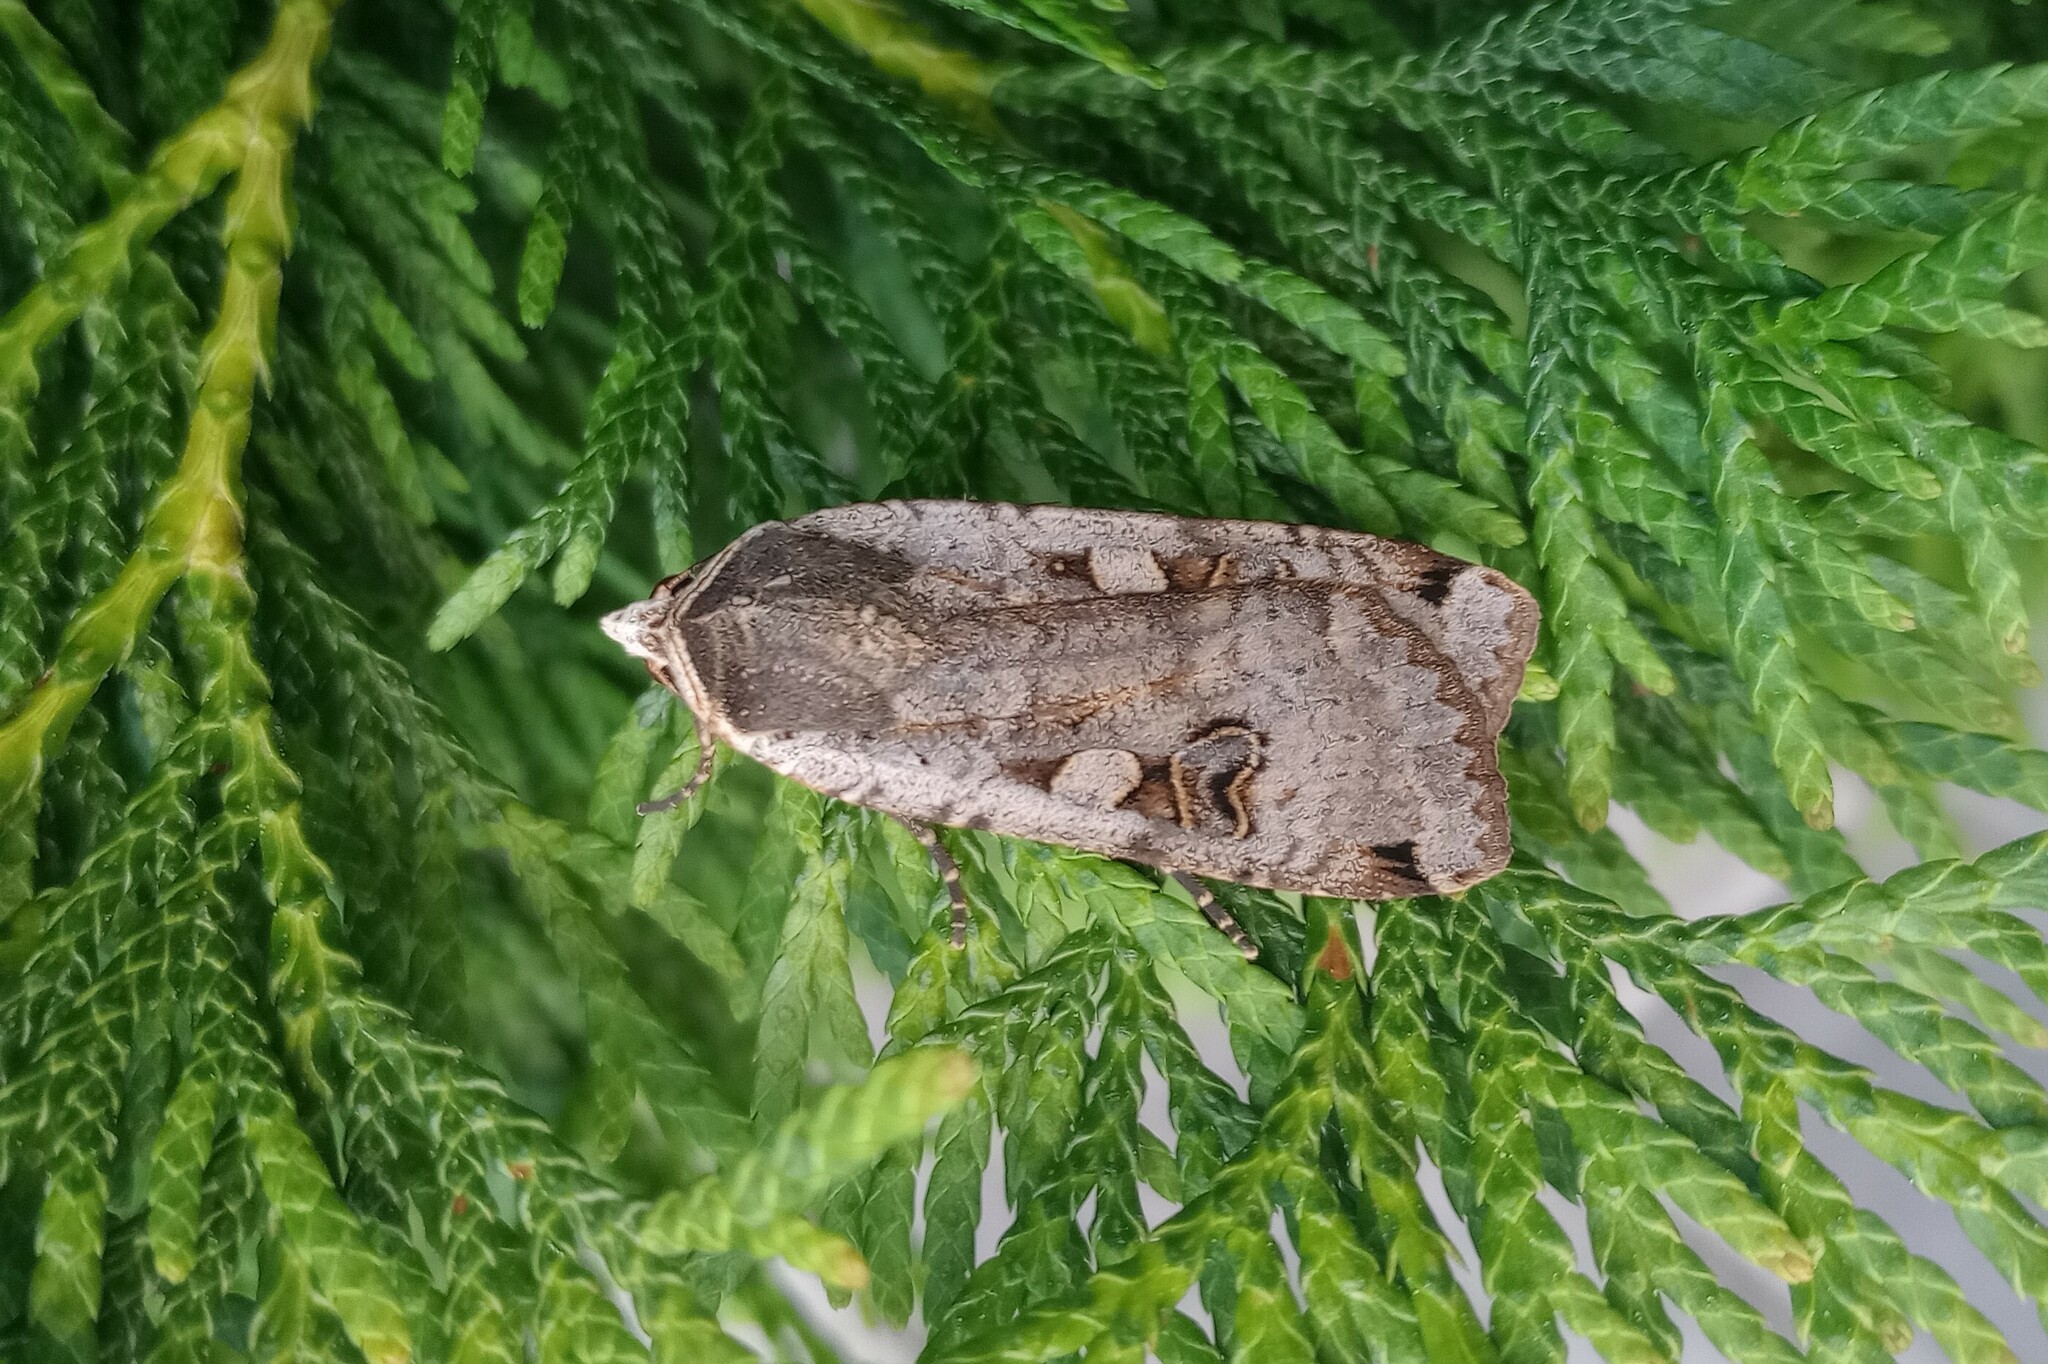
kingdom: Animalia
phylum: Arthropoda
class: Insecta
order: Lepidoptera
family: Noctuidae
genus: Noctua
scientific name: Noctua pronuba
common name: Large yellow underwing
